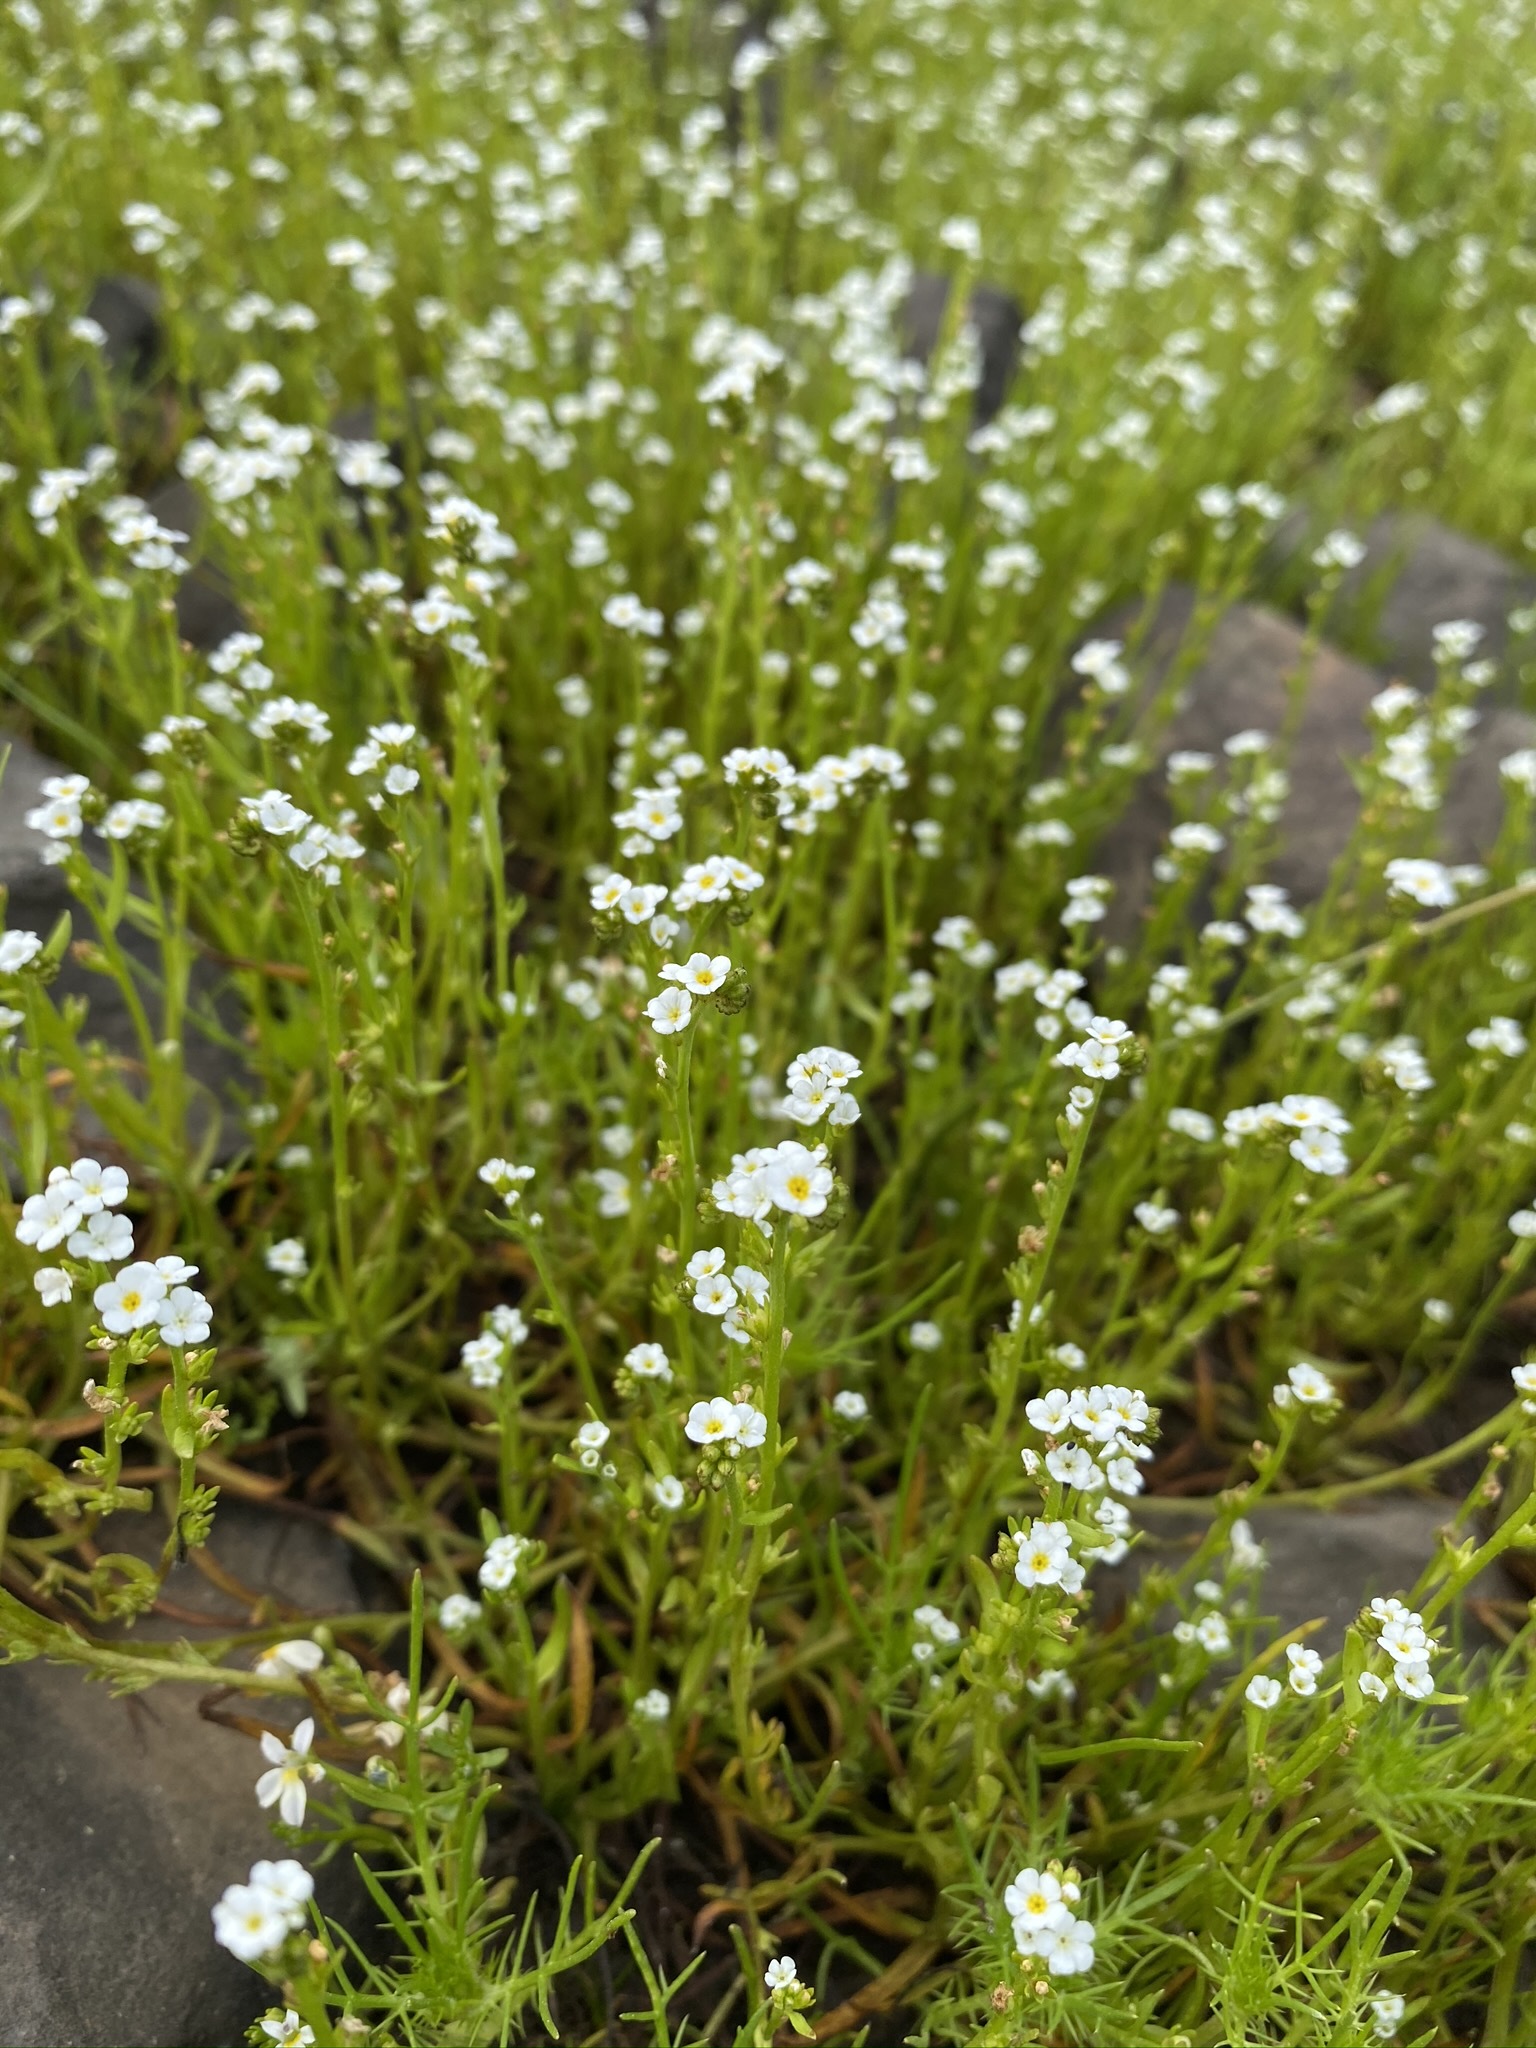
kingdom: Plantae
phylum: Tracheophyta
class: Magnoliopsida
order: Boraginales
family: Boraginaceae
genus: Plagiobothrys
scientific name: Plagiobothrys stipitatus
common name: Stipitate forget-me-not
